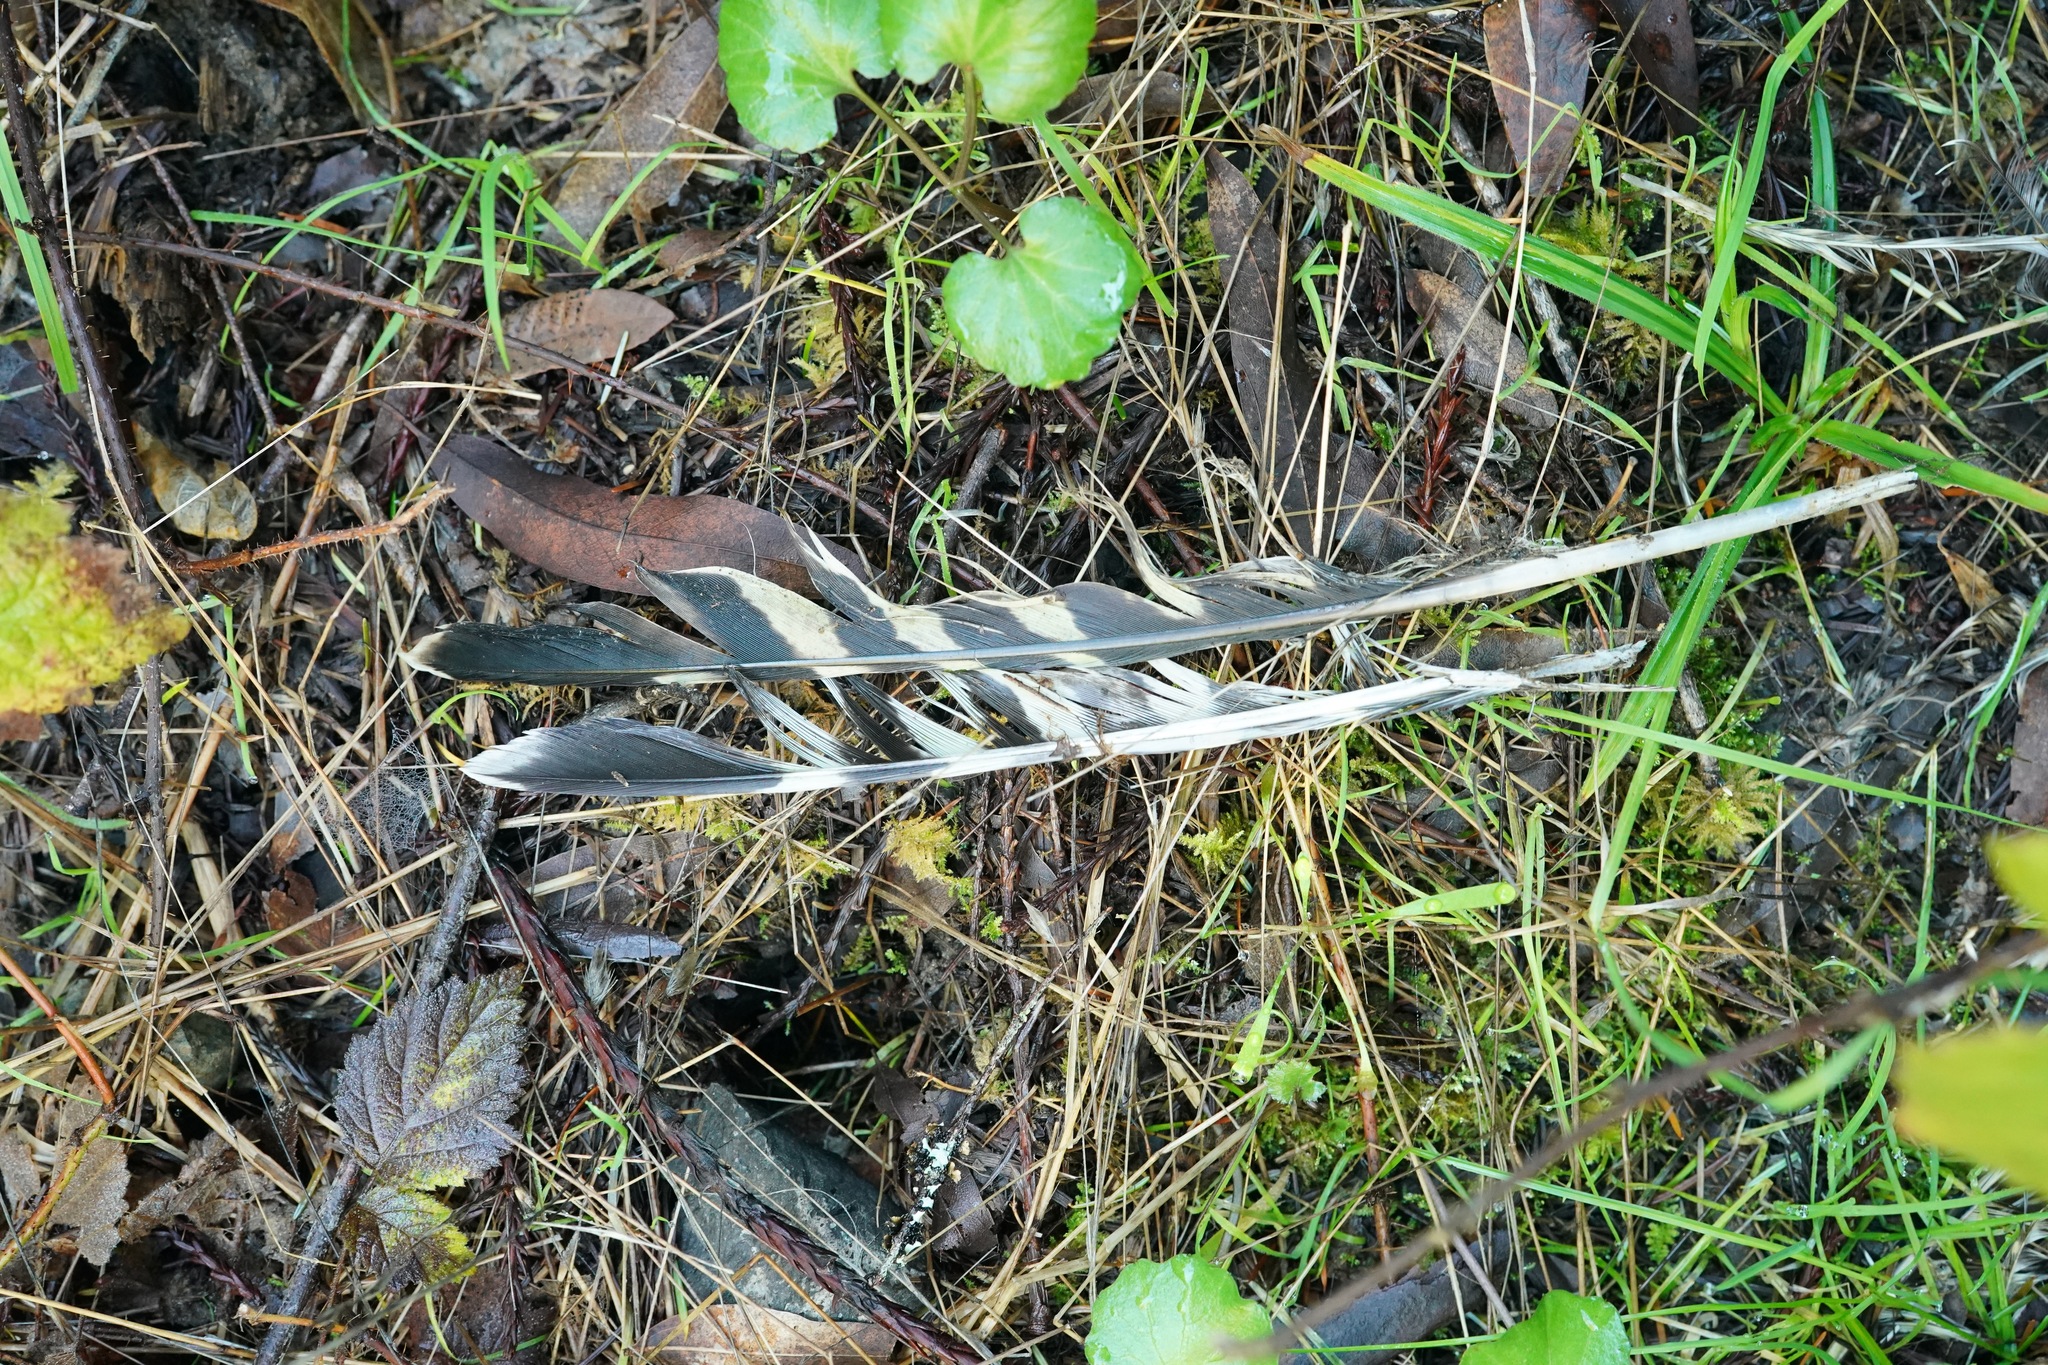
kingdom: Animalia
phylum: Chordata
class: Aves
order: Accipitriformes
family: Accipitridae
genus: Buteo
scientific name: Buteo lineatus
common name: Red-shouldered hawk
